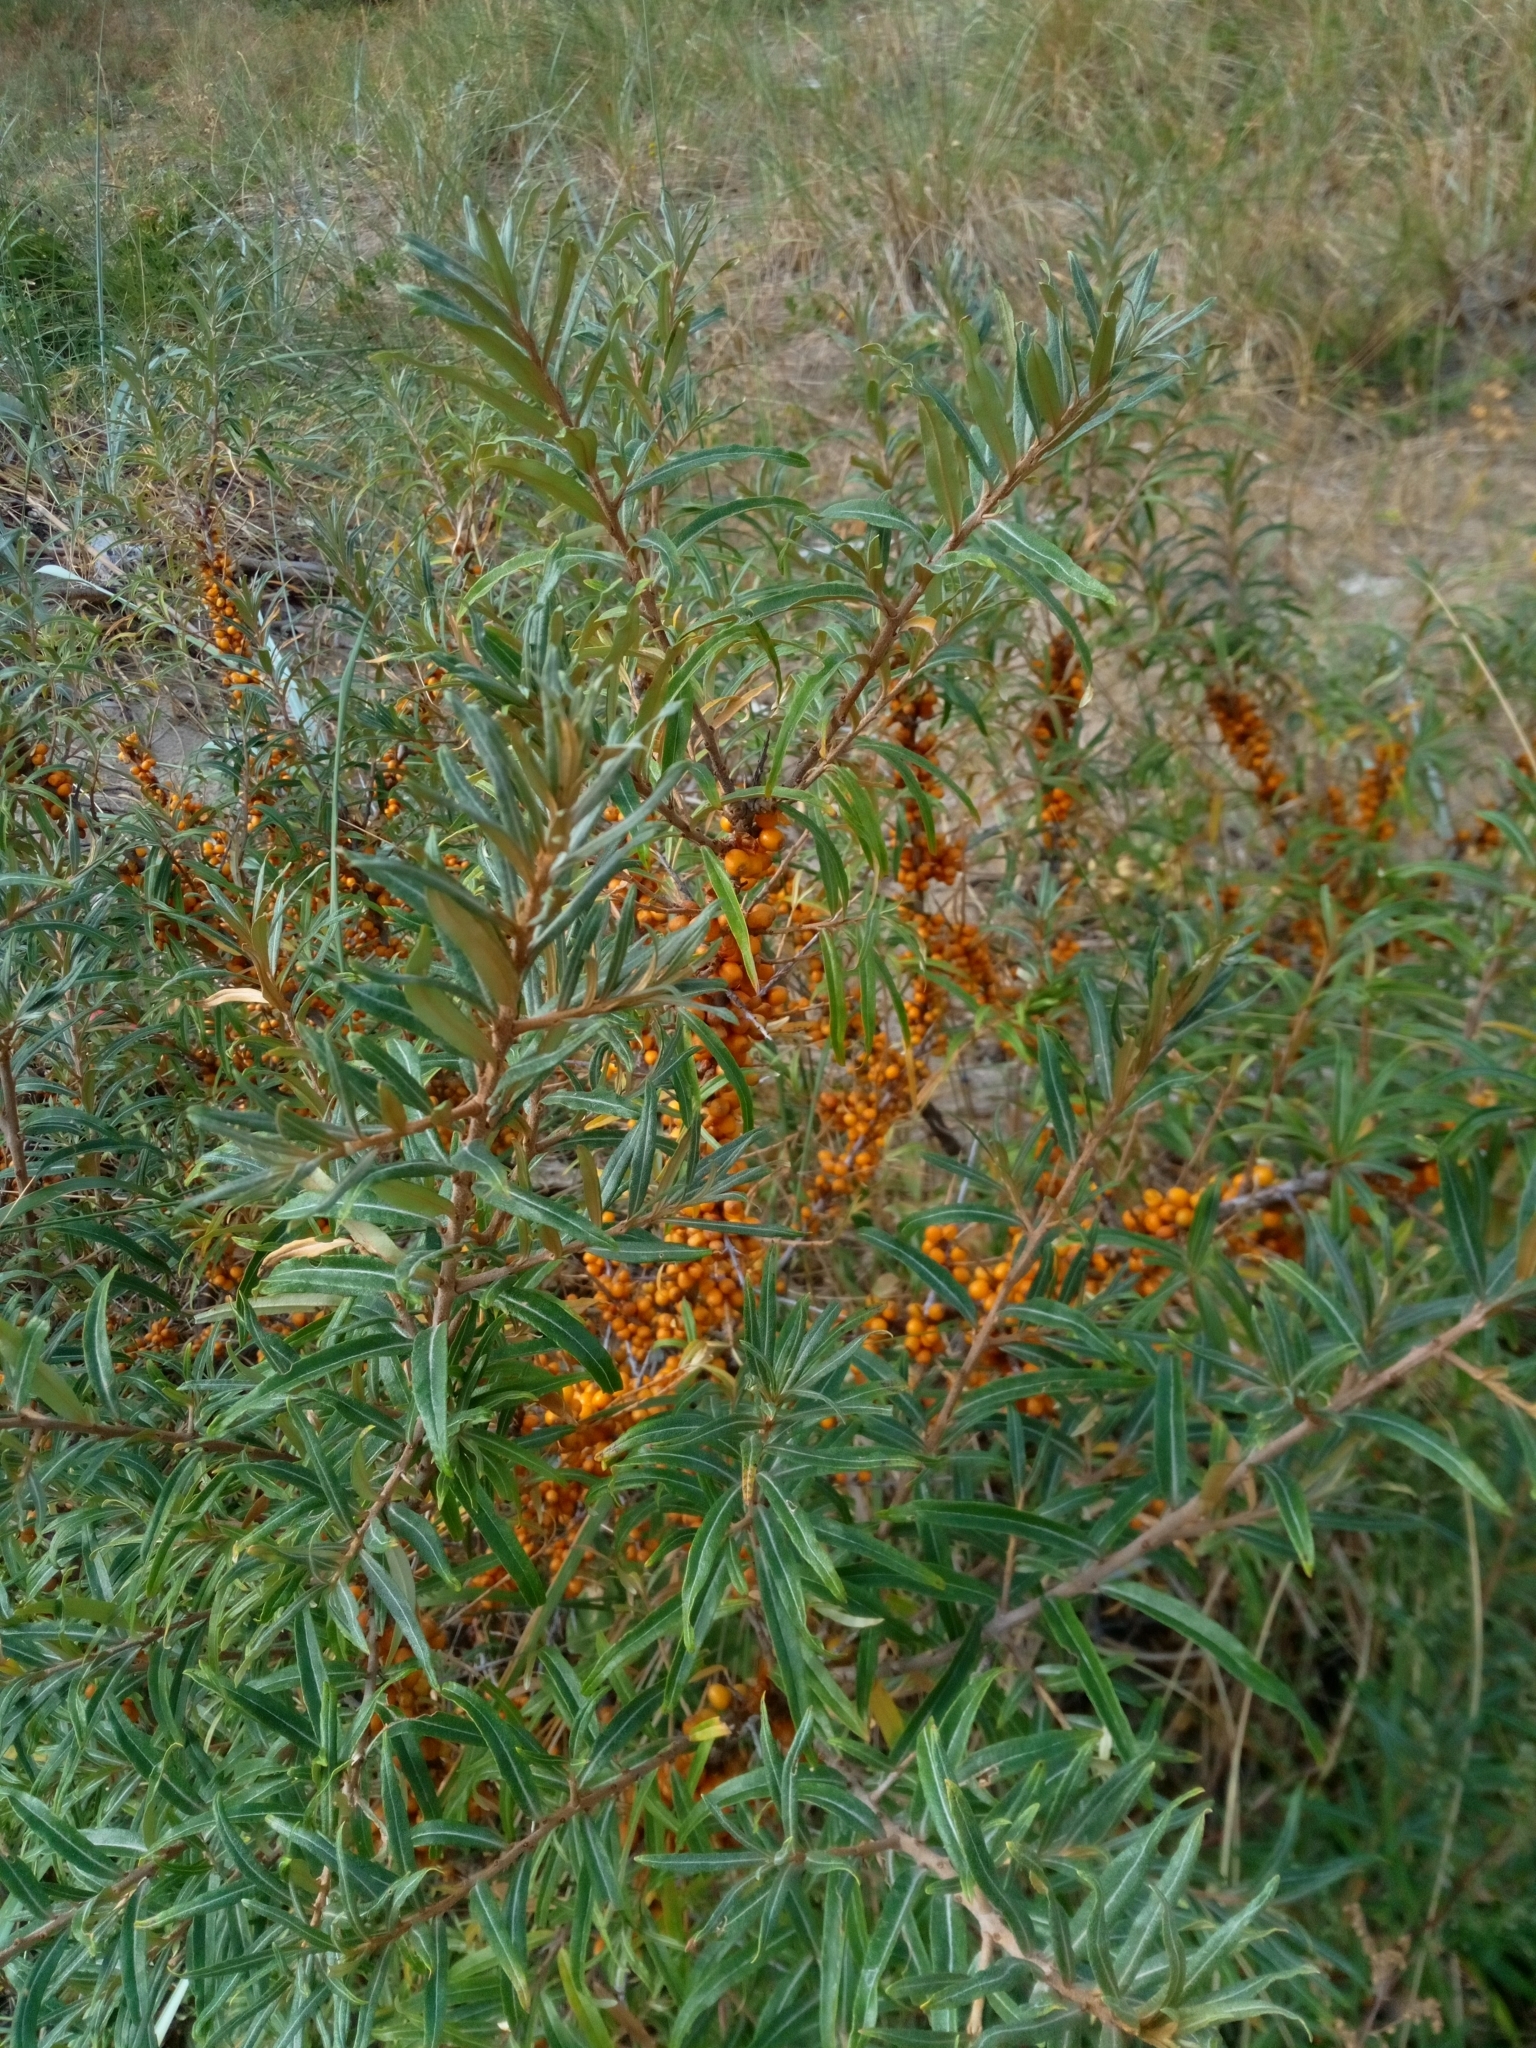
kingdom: Plantae
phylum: Tracheophyta
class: Magnoliopsida
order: Rosales
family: Elaeagnaceae
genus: Hippophae
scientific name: Hippophae rhamnoides
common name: Sea-buckthorn
